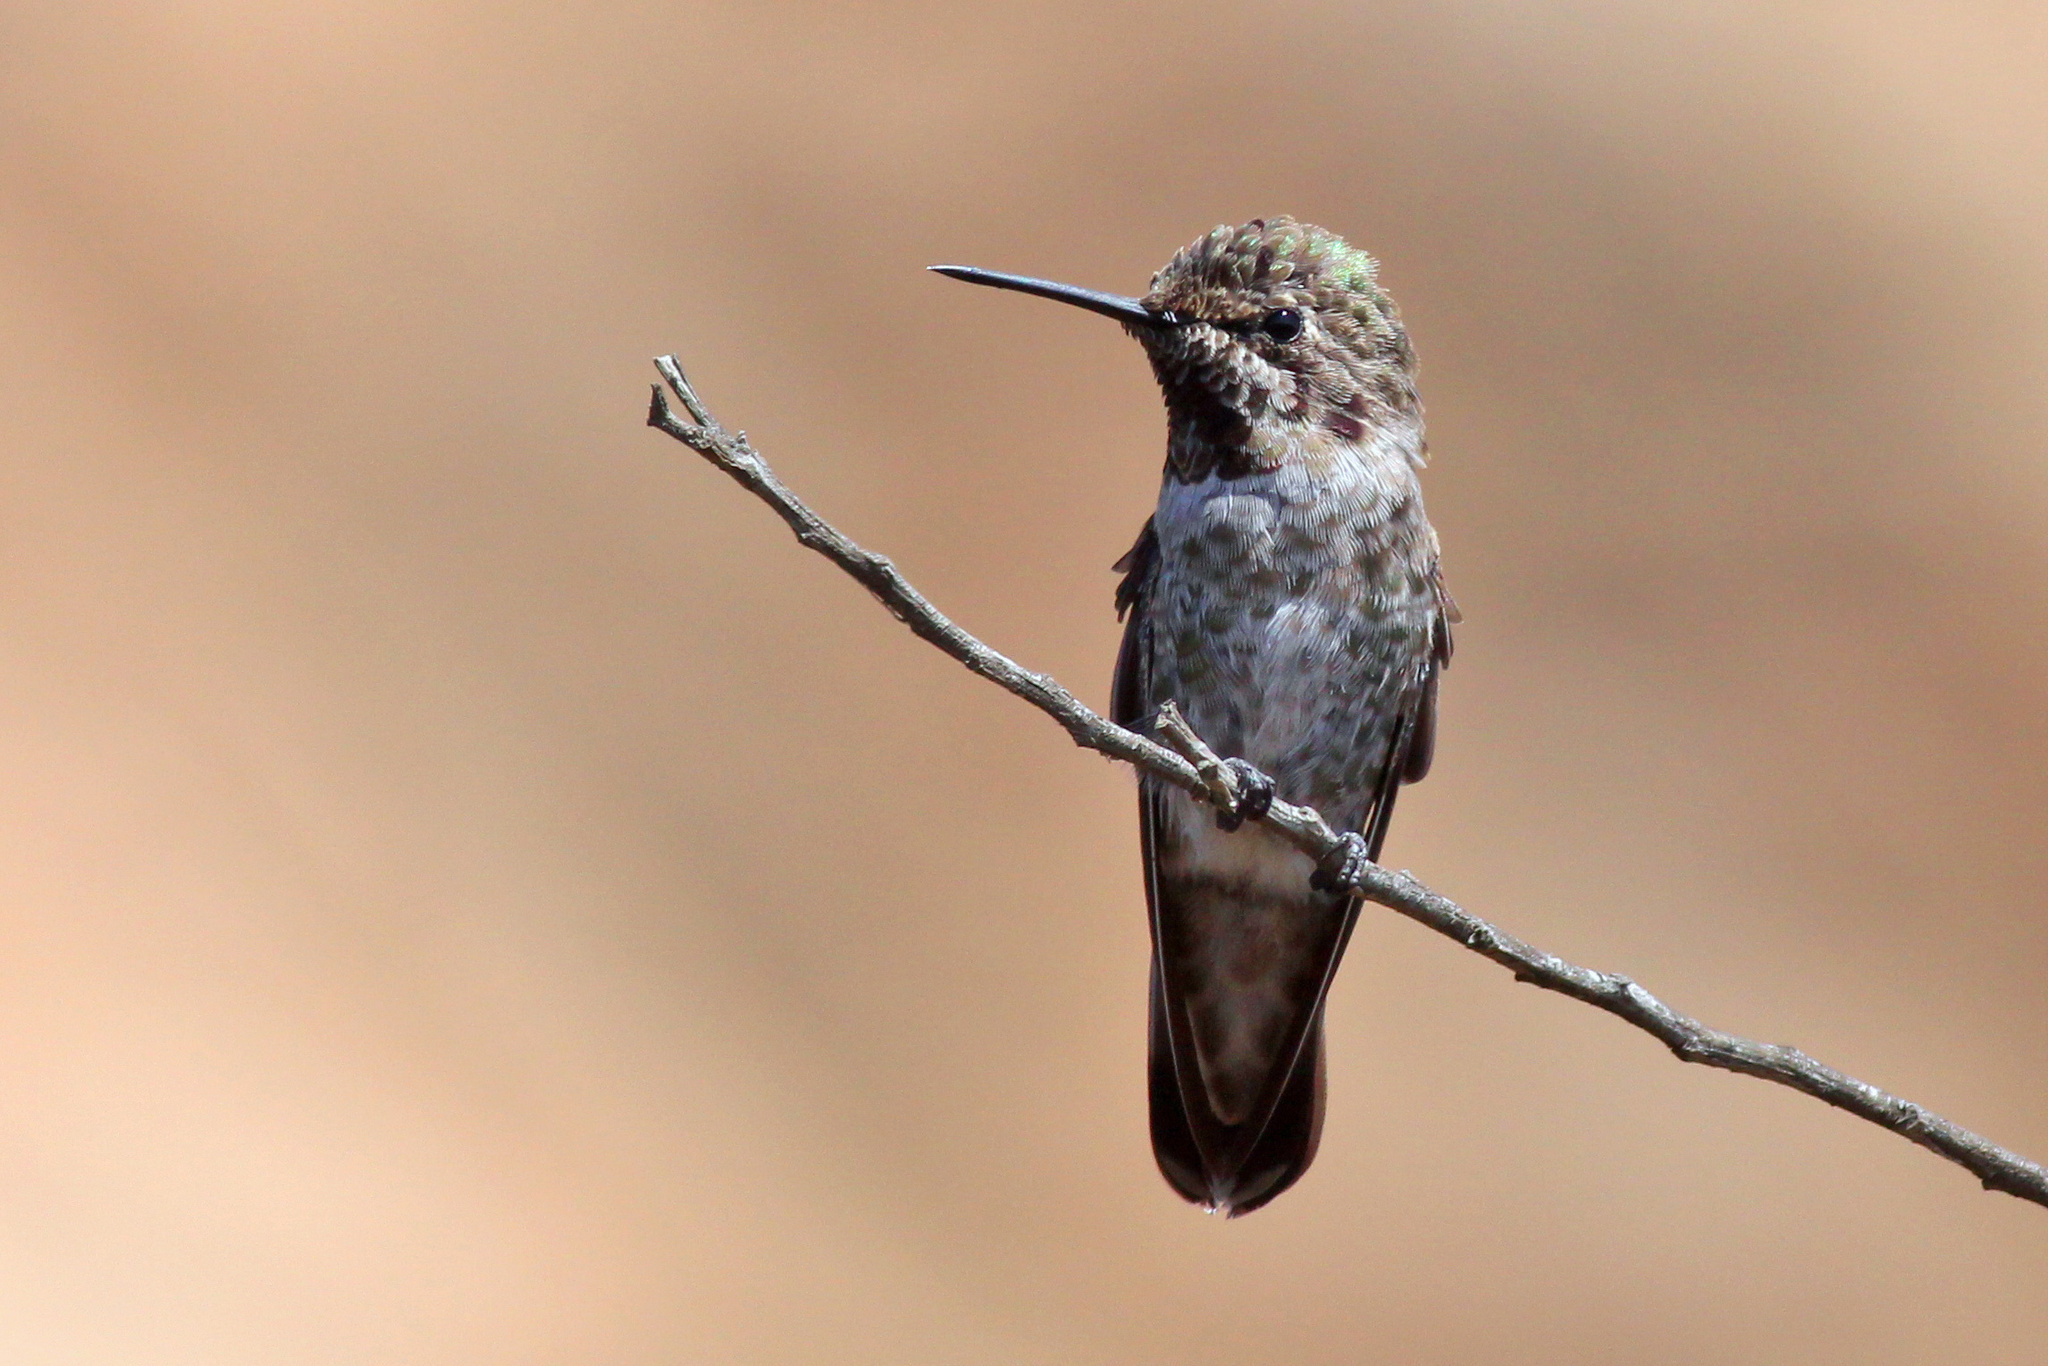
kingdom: Animalia
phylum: Chordata
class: Aves
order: Apodiformes
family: Trochilidae
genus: Calypte
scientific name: Calypte anna
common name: Anna's hummingbird
